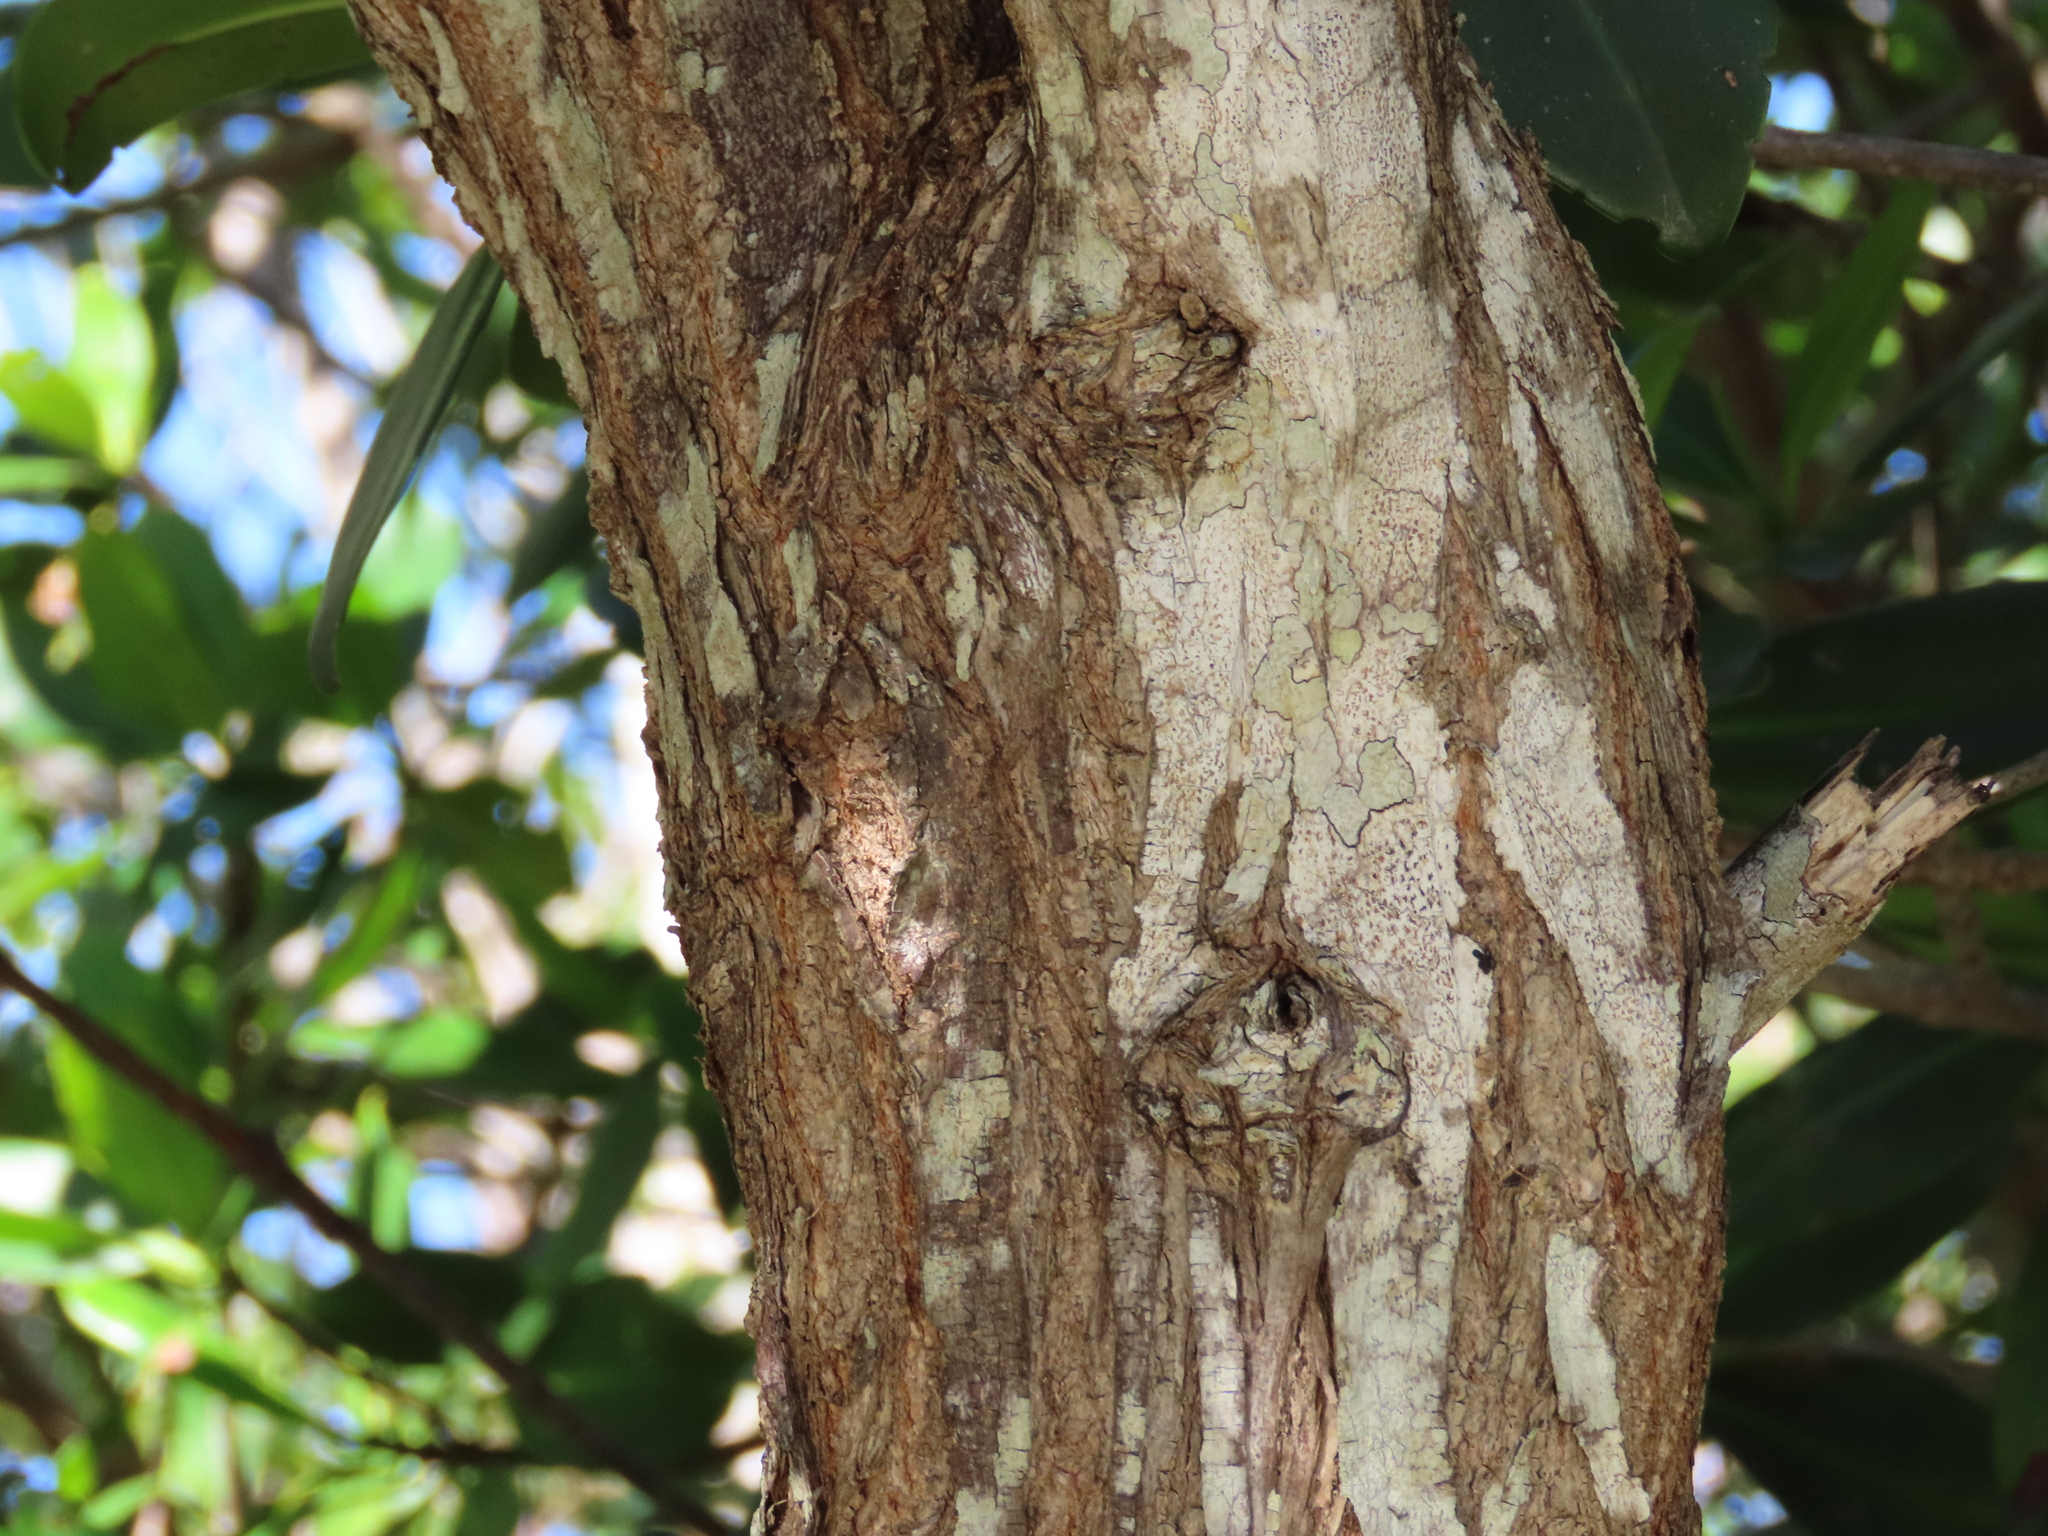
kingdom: Plantae
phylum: Tracheophyta
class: Magnoliopsida
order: Myrtales
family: Combretaceae
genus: Conocarpus
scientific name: Conocarpus erectus
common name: Button mangrove
